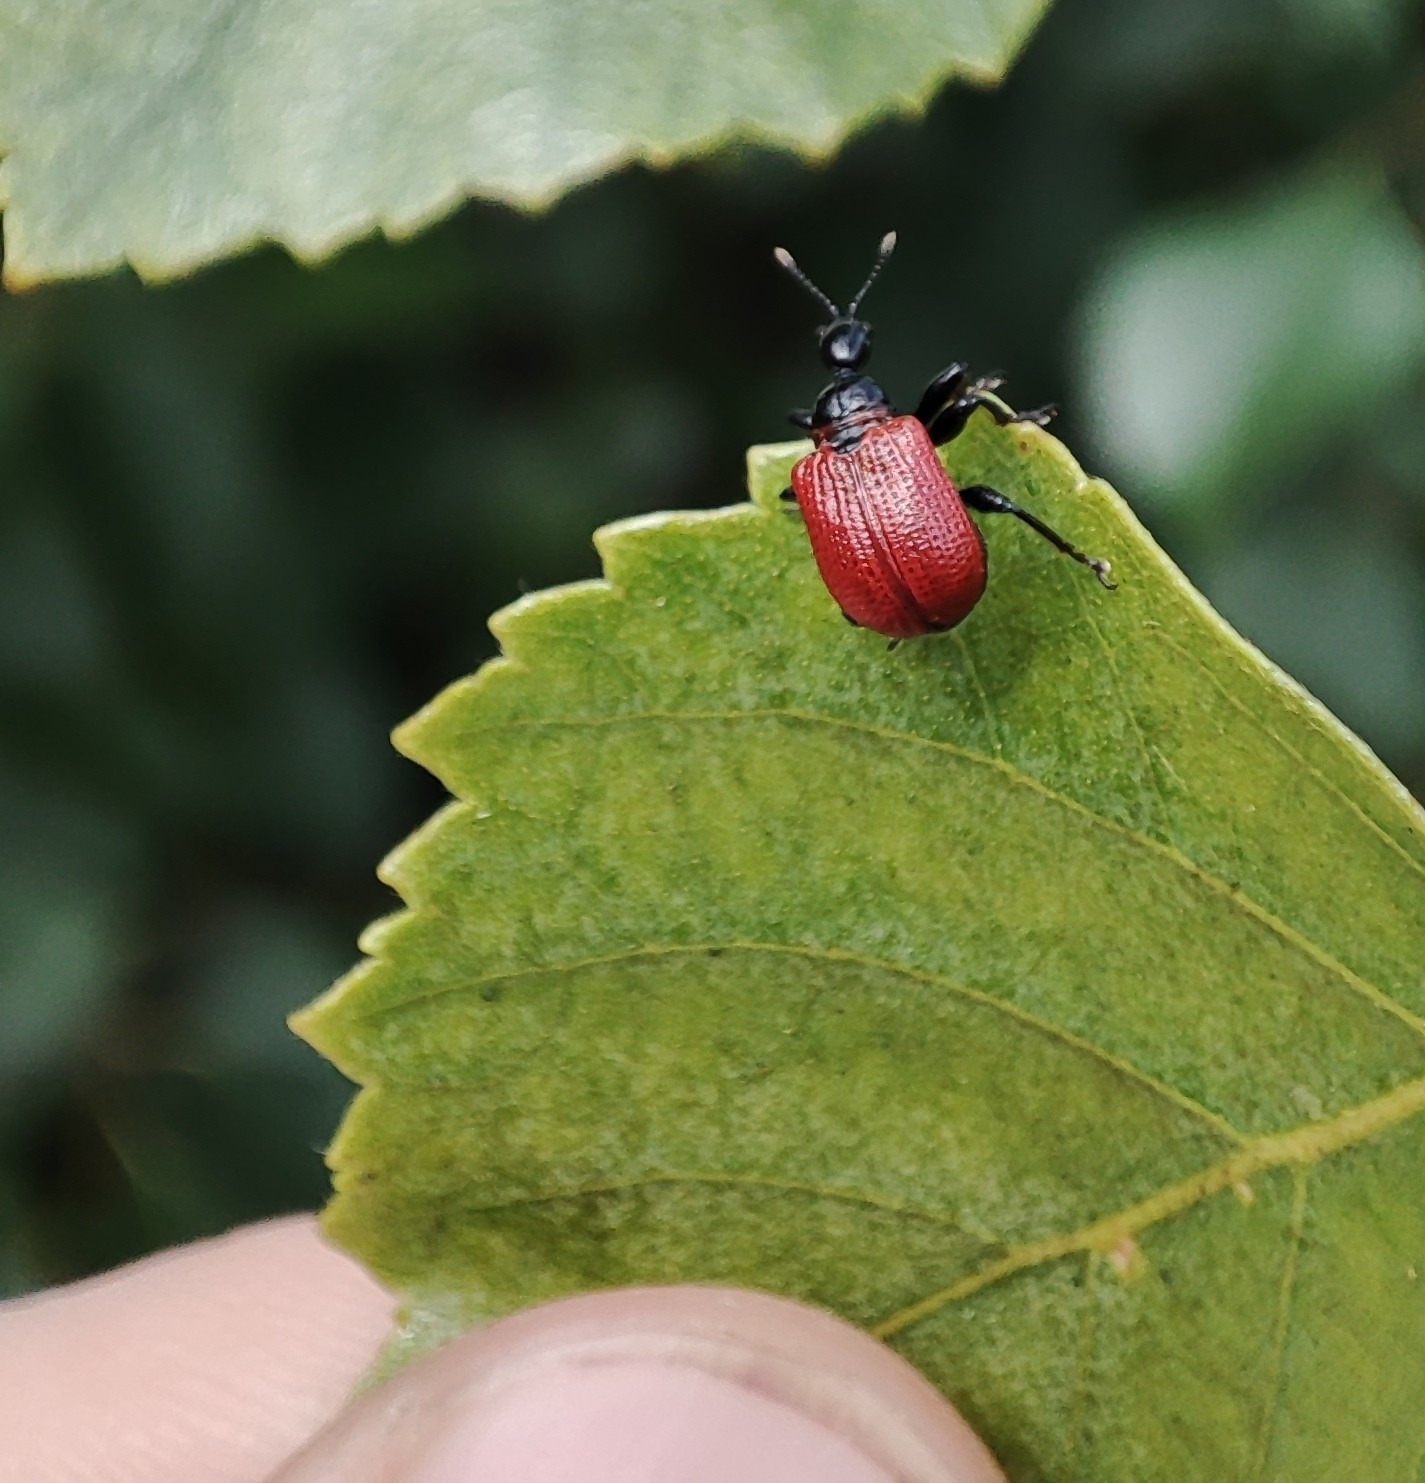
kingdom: Animalia
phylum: Arthropoda
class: Insecta
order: Coleoptera
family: Attelabidae
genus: Apoderus
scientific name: Apoderus coryli
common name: Hazel leaf roller
